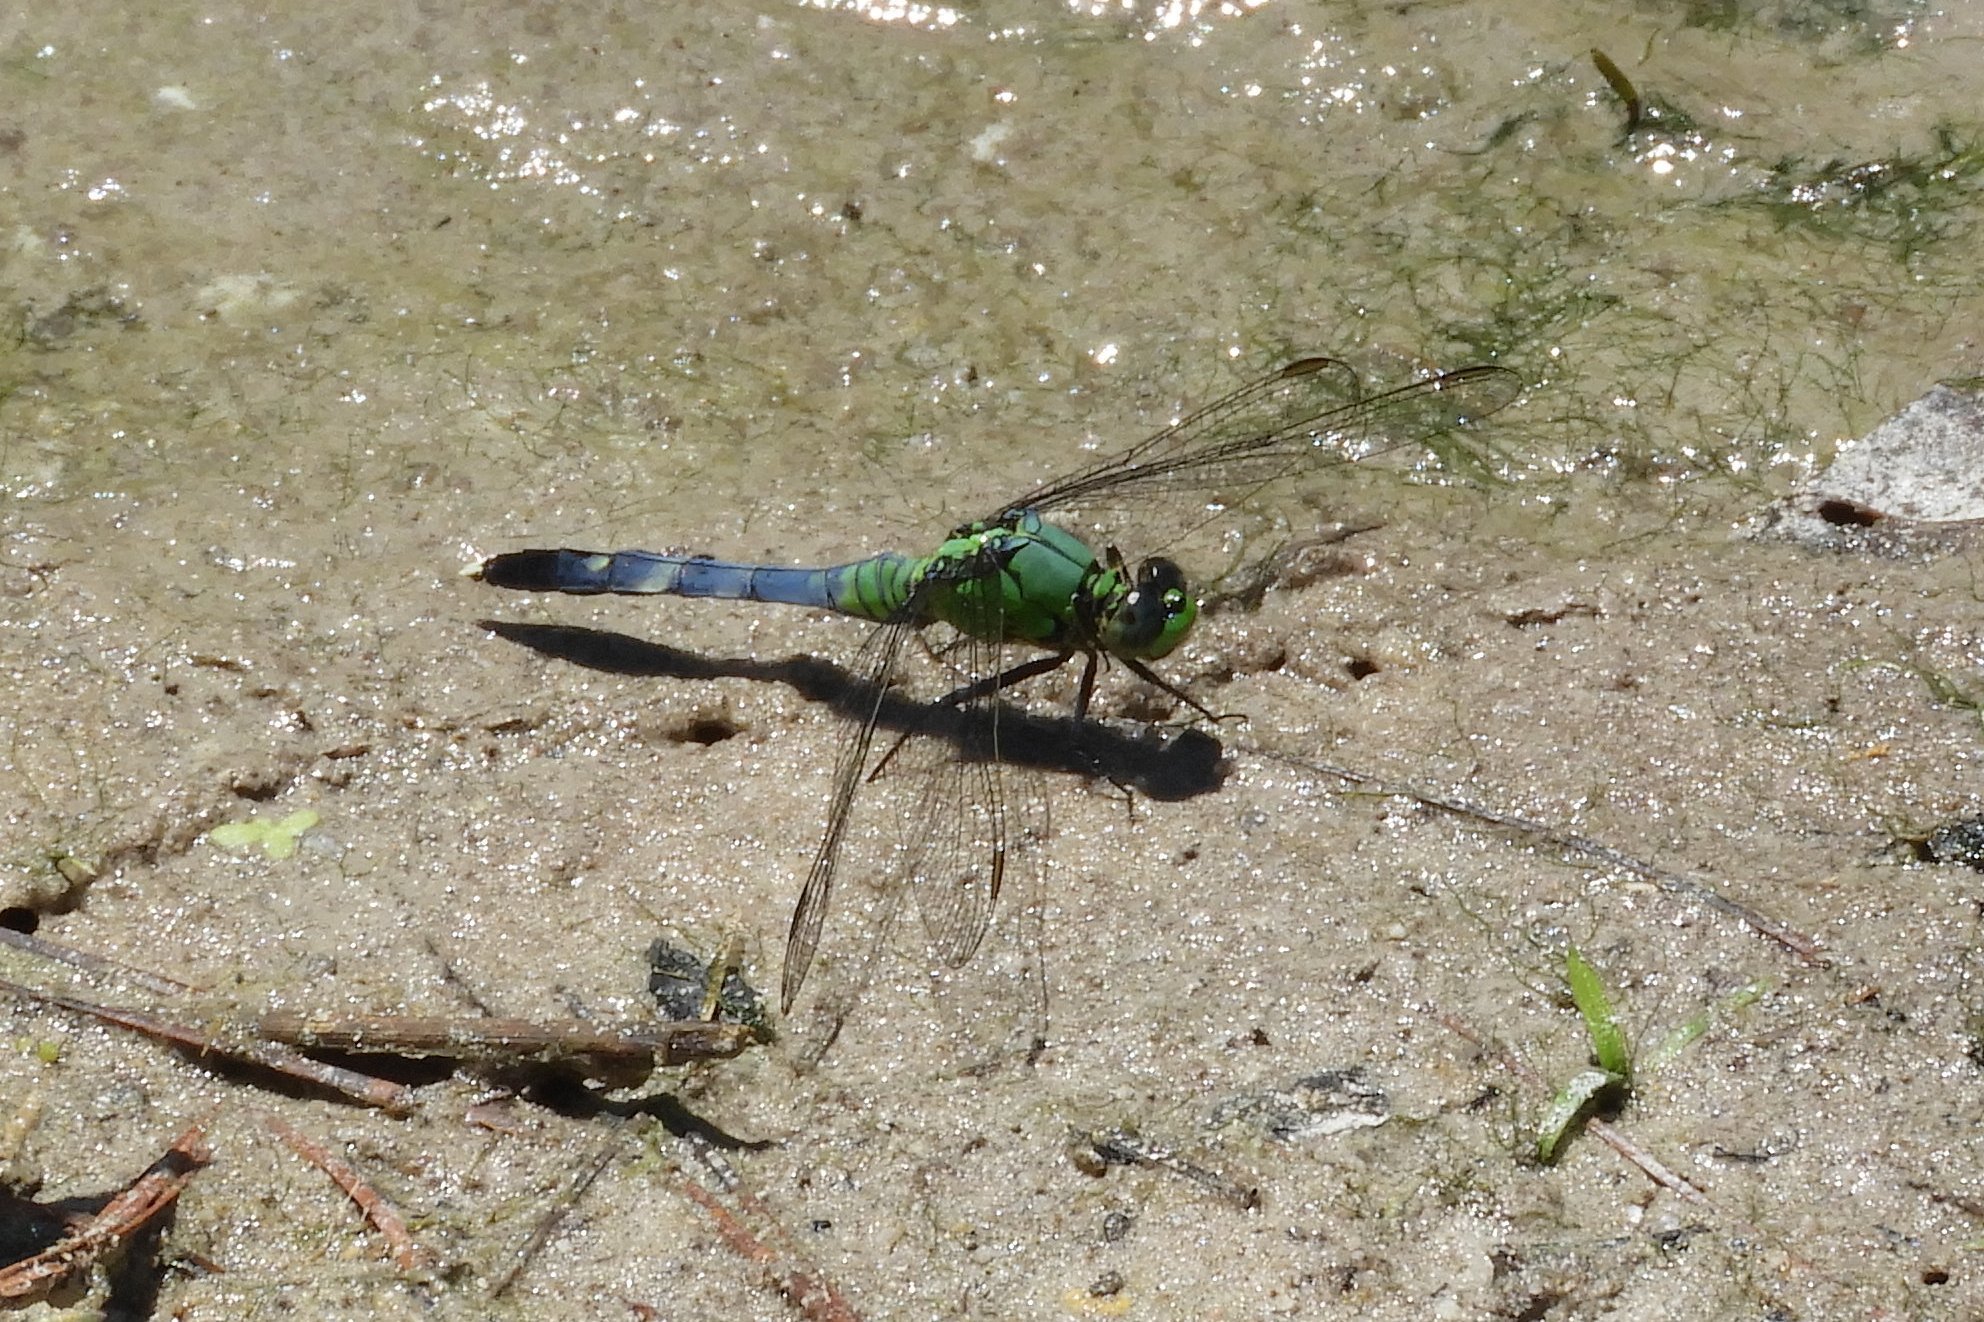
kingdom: Animalia
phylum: Arthropoda
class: Insecta
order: Odonata
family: Libellulidae
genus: Erythemis
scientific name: Erythemis simplicicollis
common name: Eastern pondhawk
